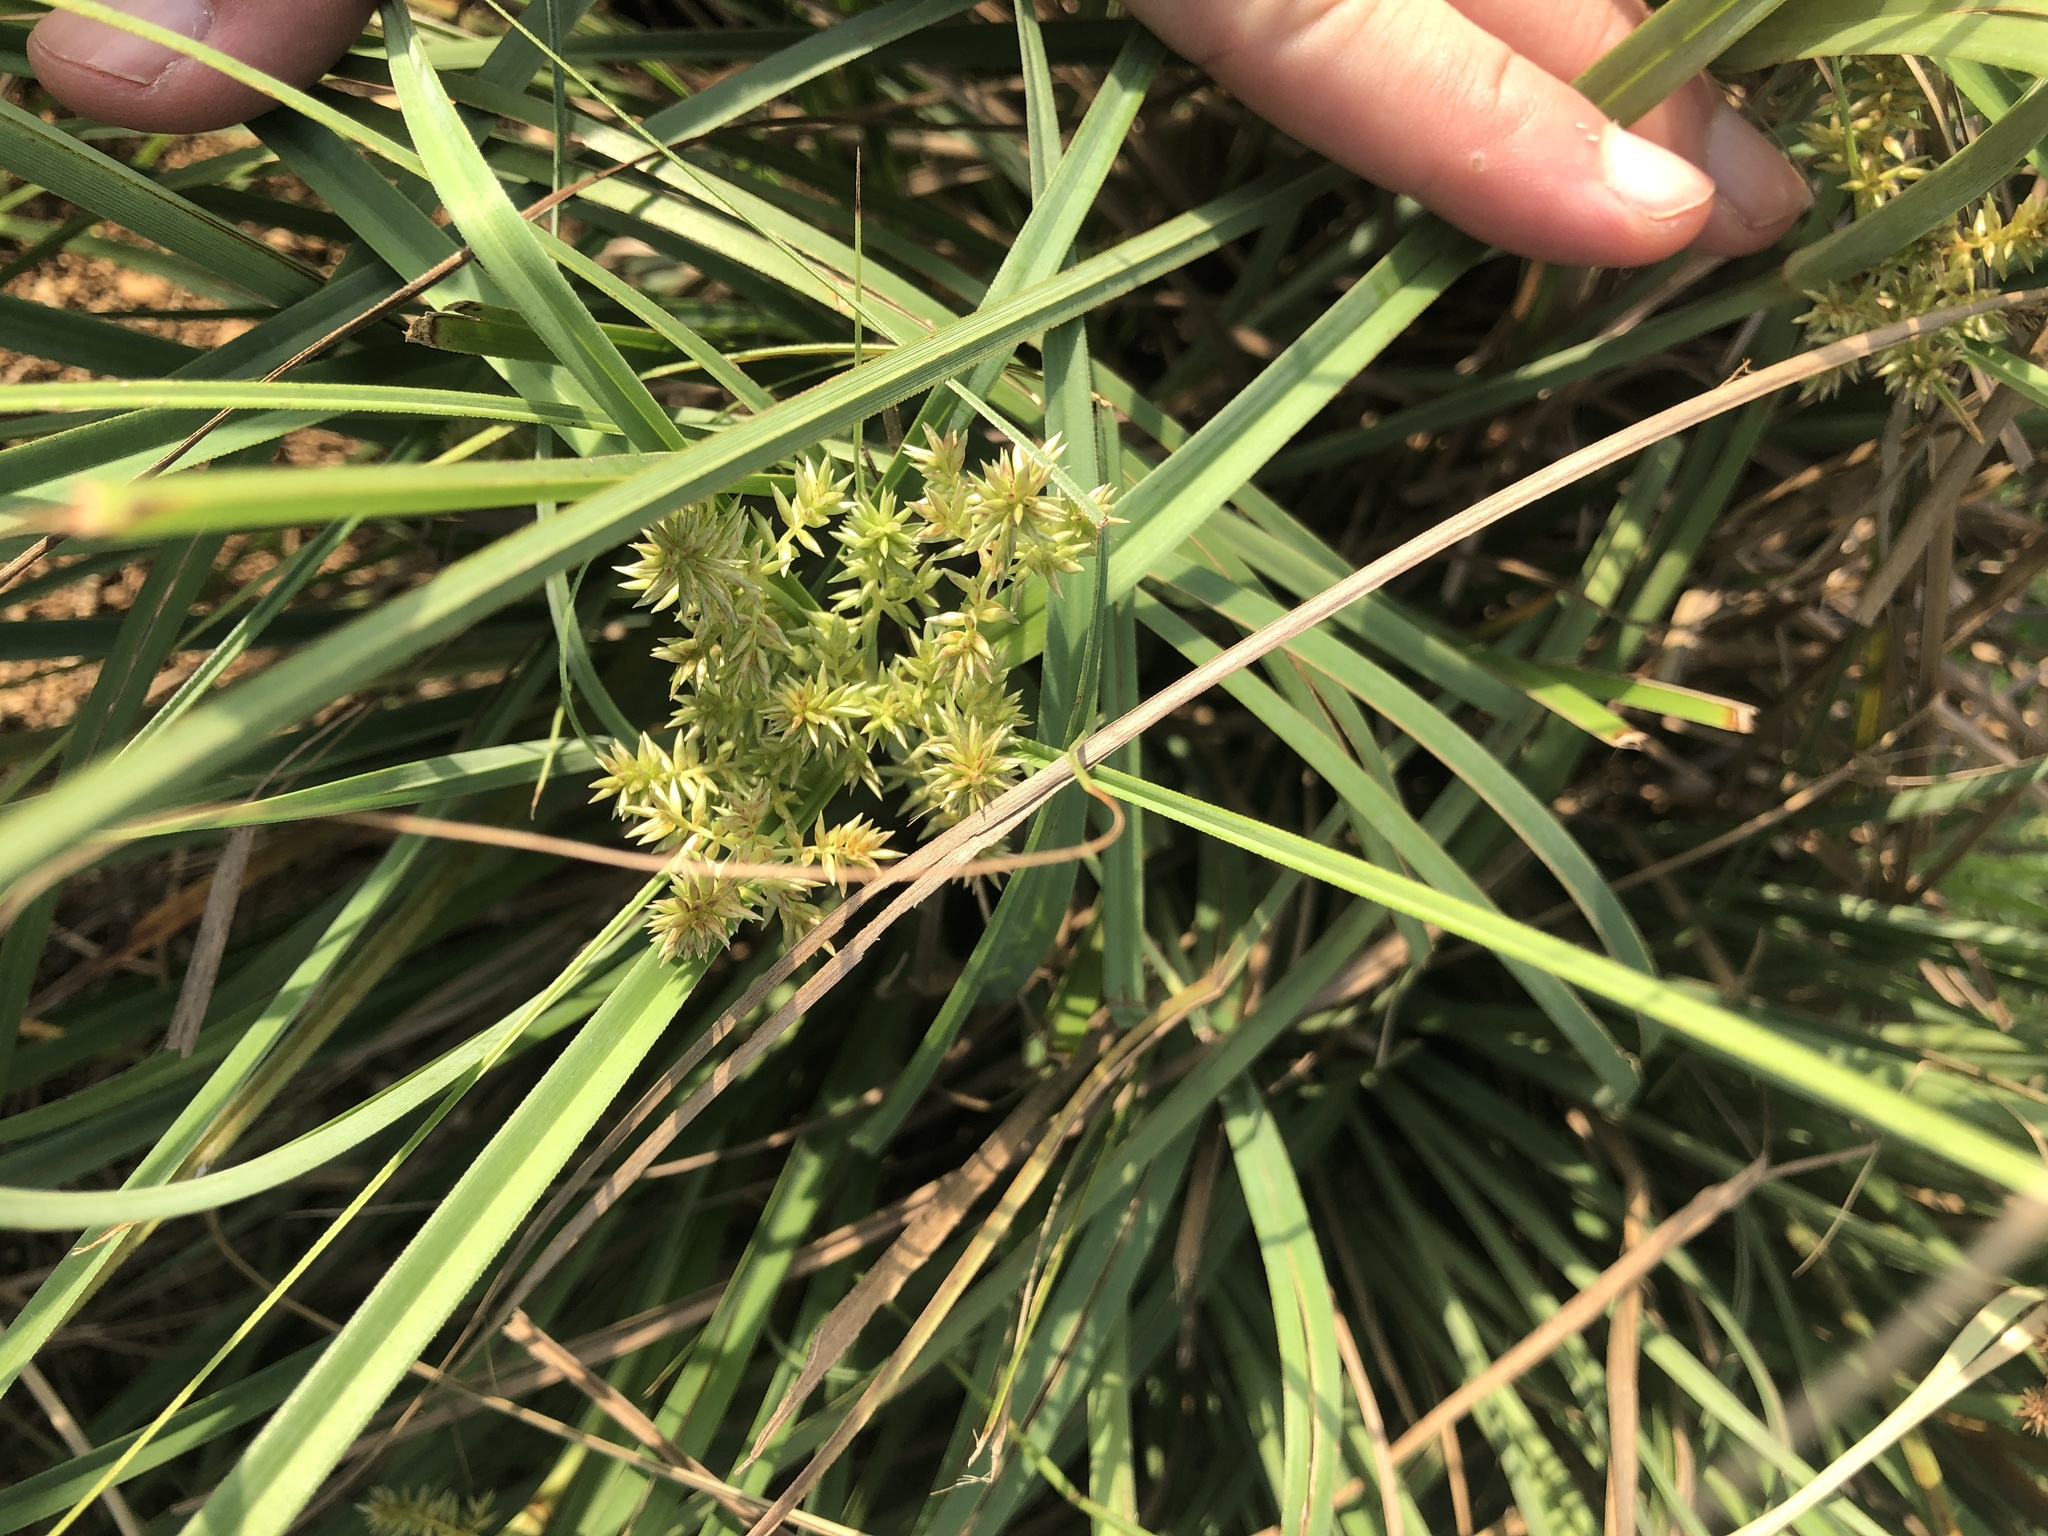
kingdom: Plantae
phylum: Tracheophyta
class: Liliopsida
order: Poales
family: Cyperaceae
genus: Cyperus
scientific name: Cyperus javanicus
